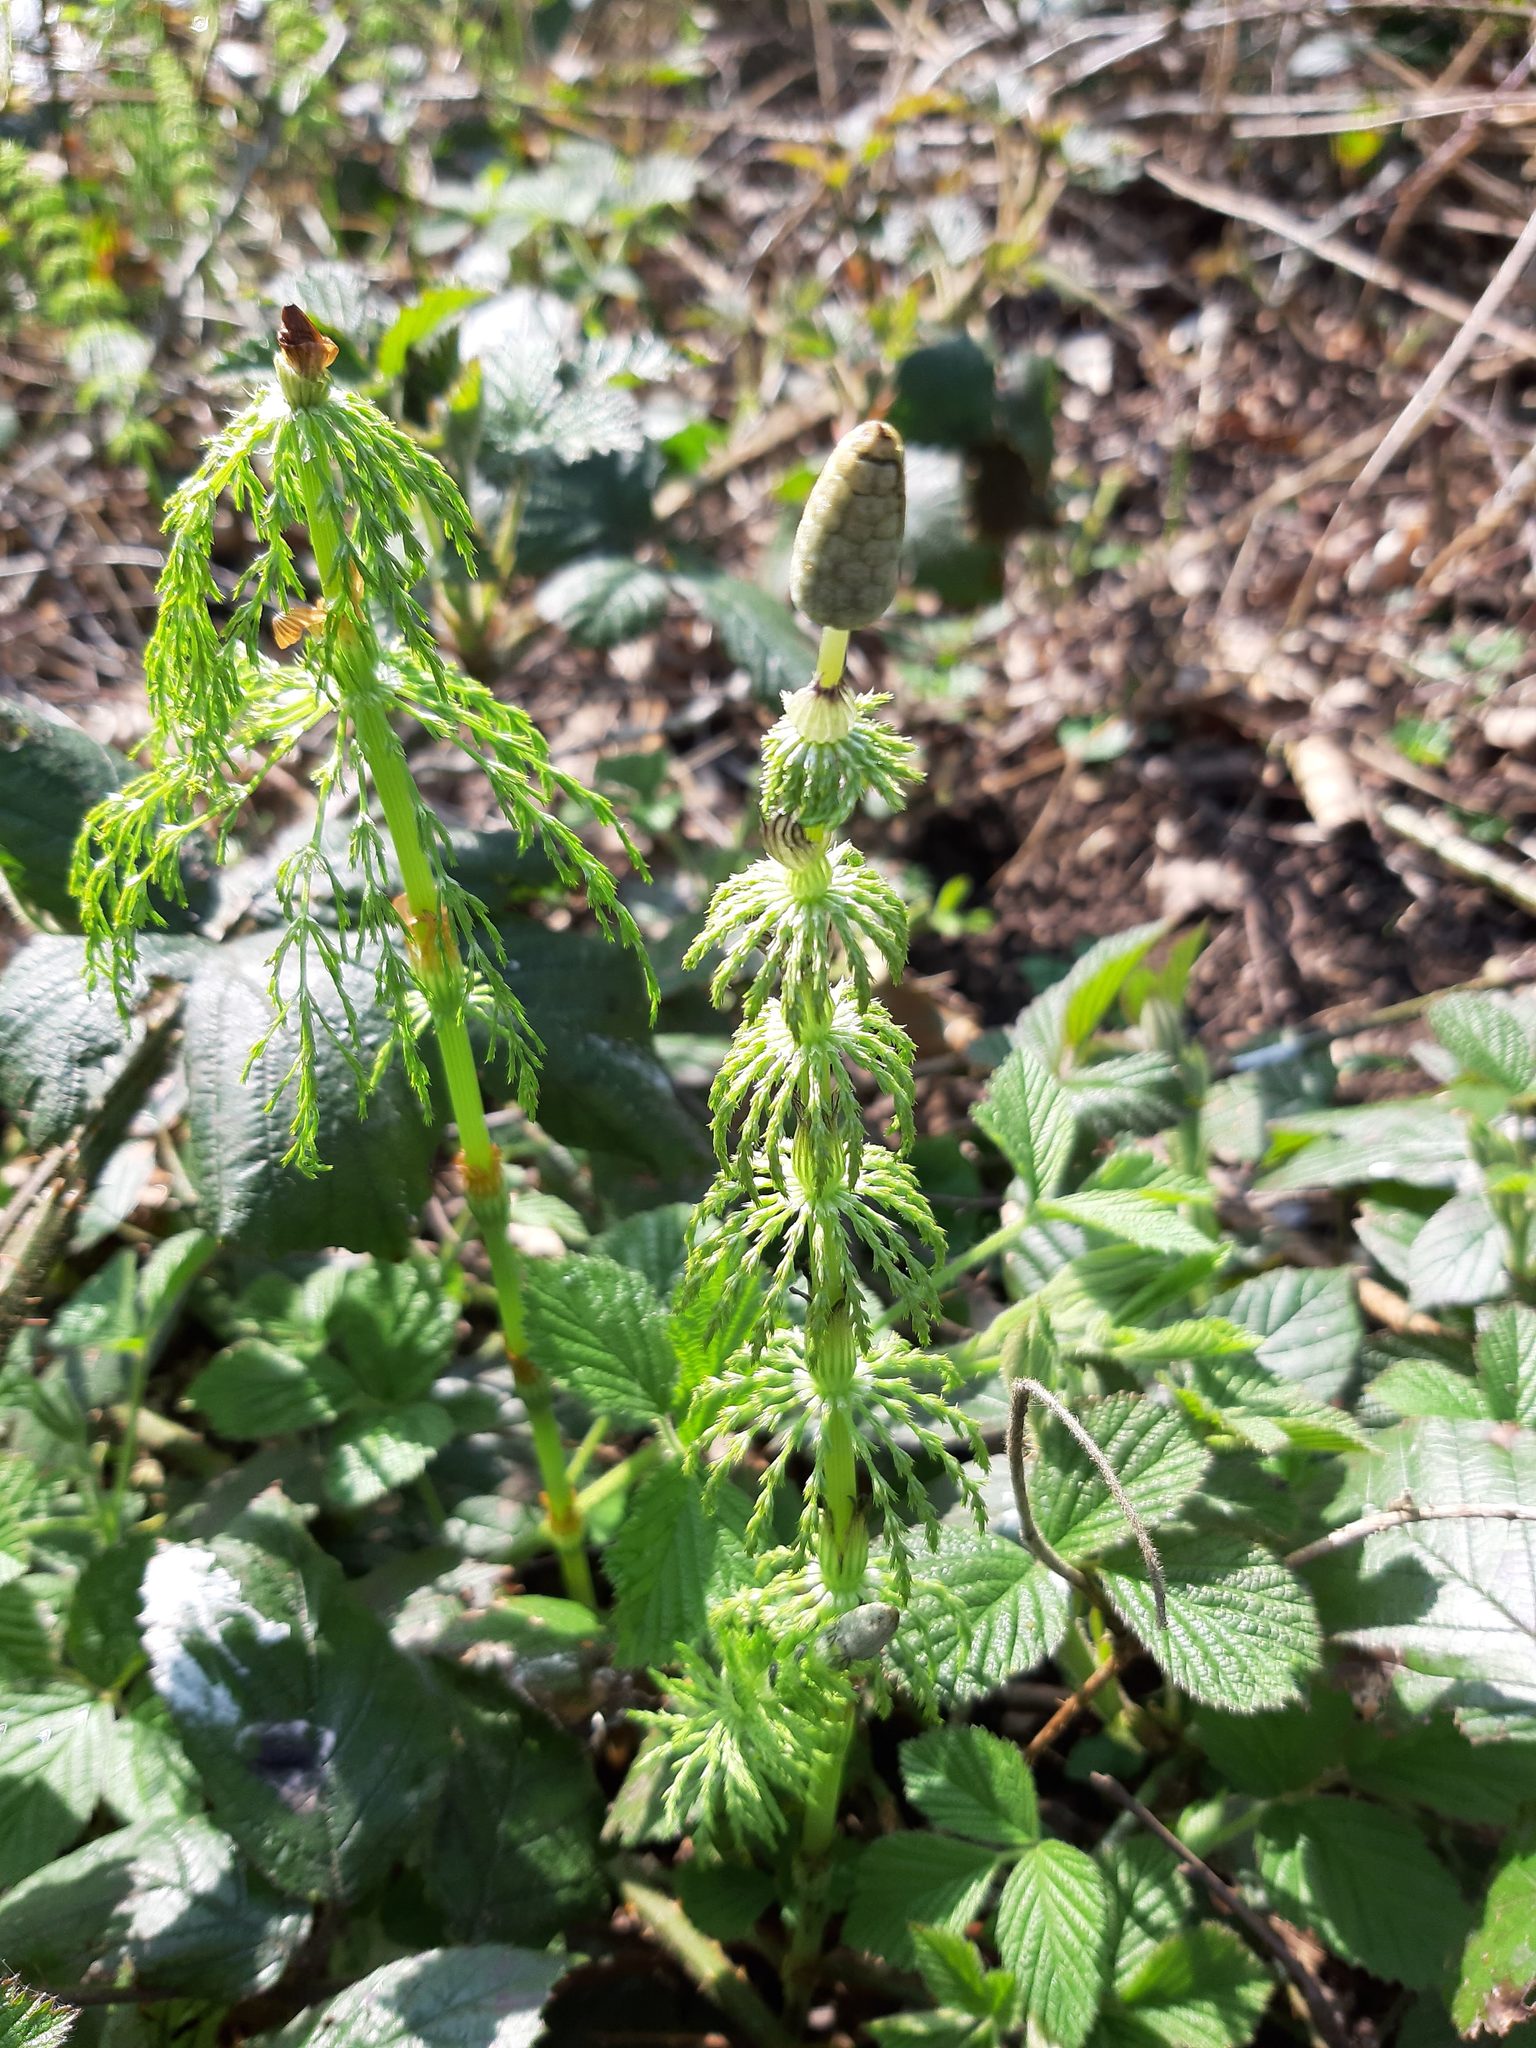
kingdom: Plantae
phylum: Tracheophyta
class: Polypodiopsida
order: Equisetales
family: Equisetaceae
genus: Equisetum
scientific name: Equisetum sylvaticum
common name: Wood horsetail
